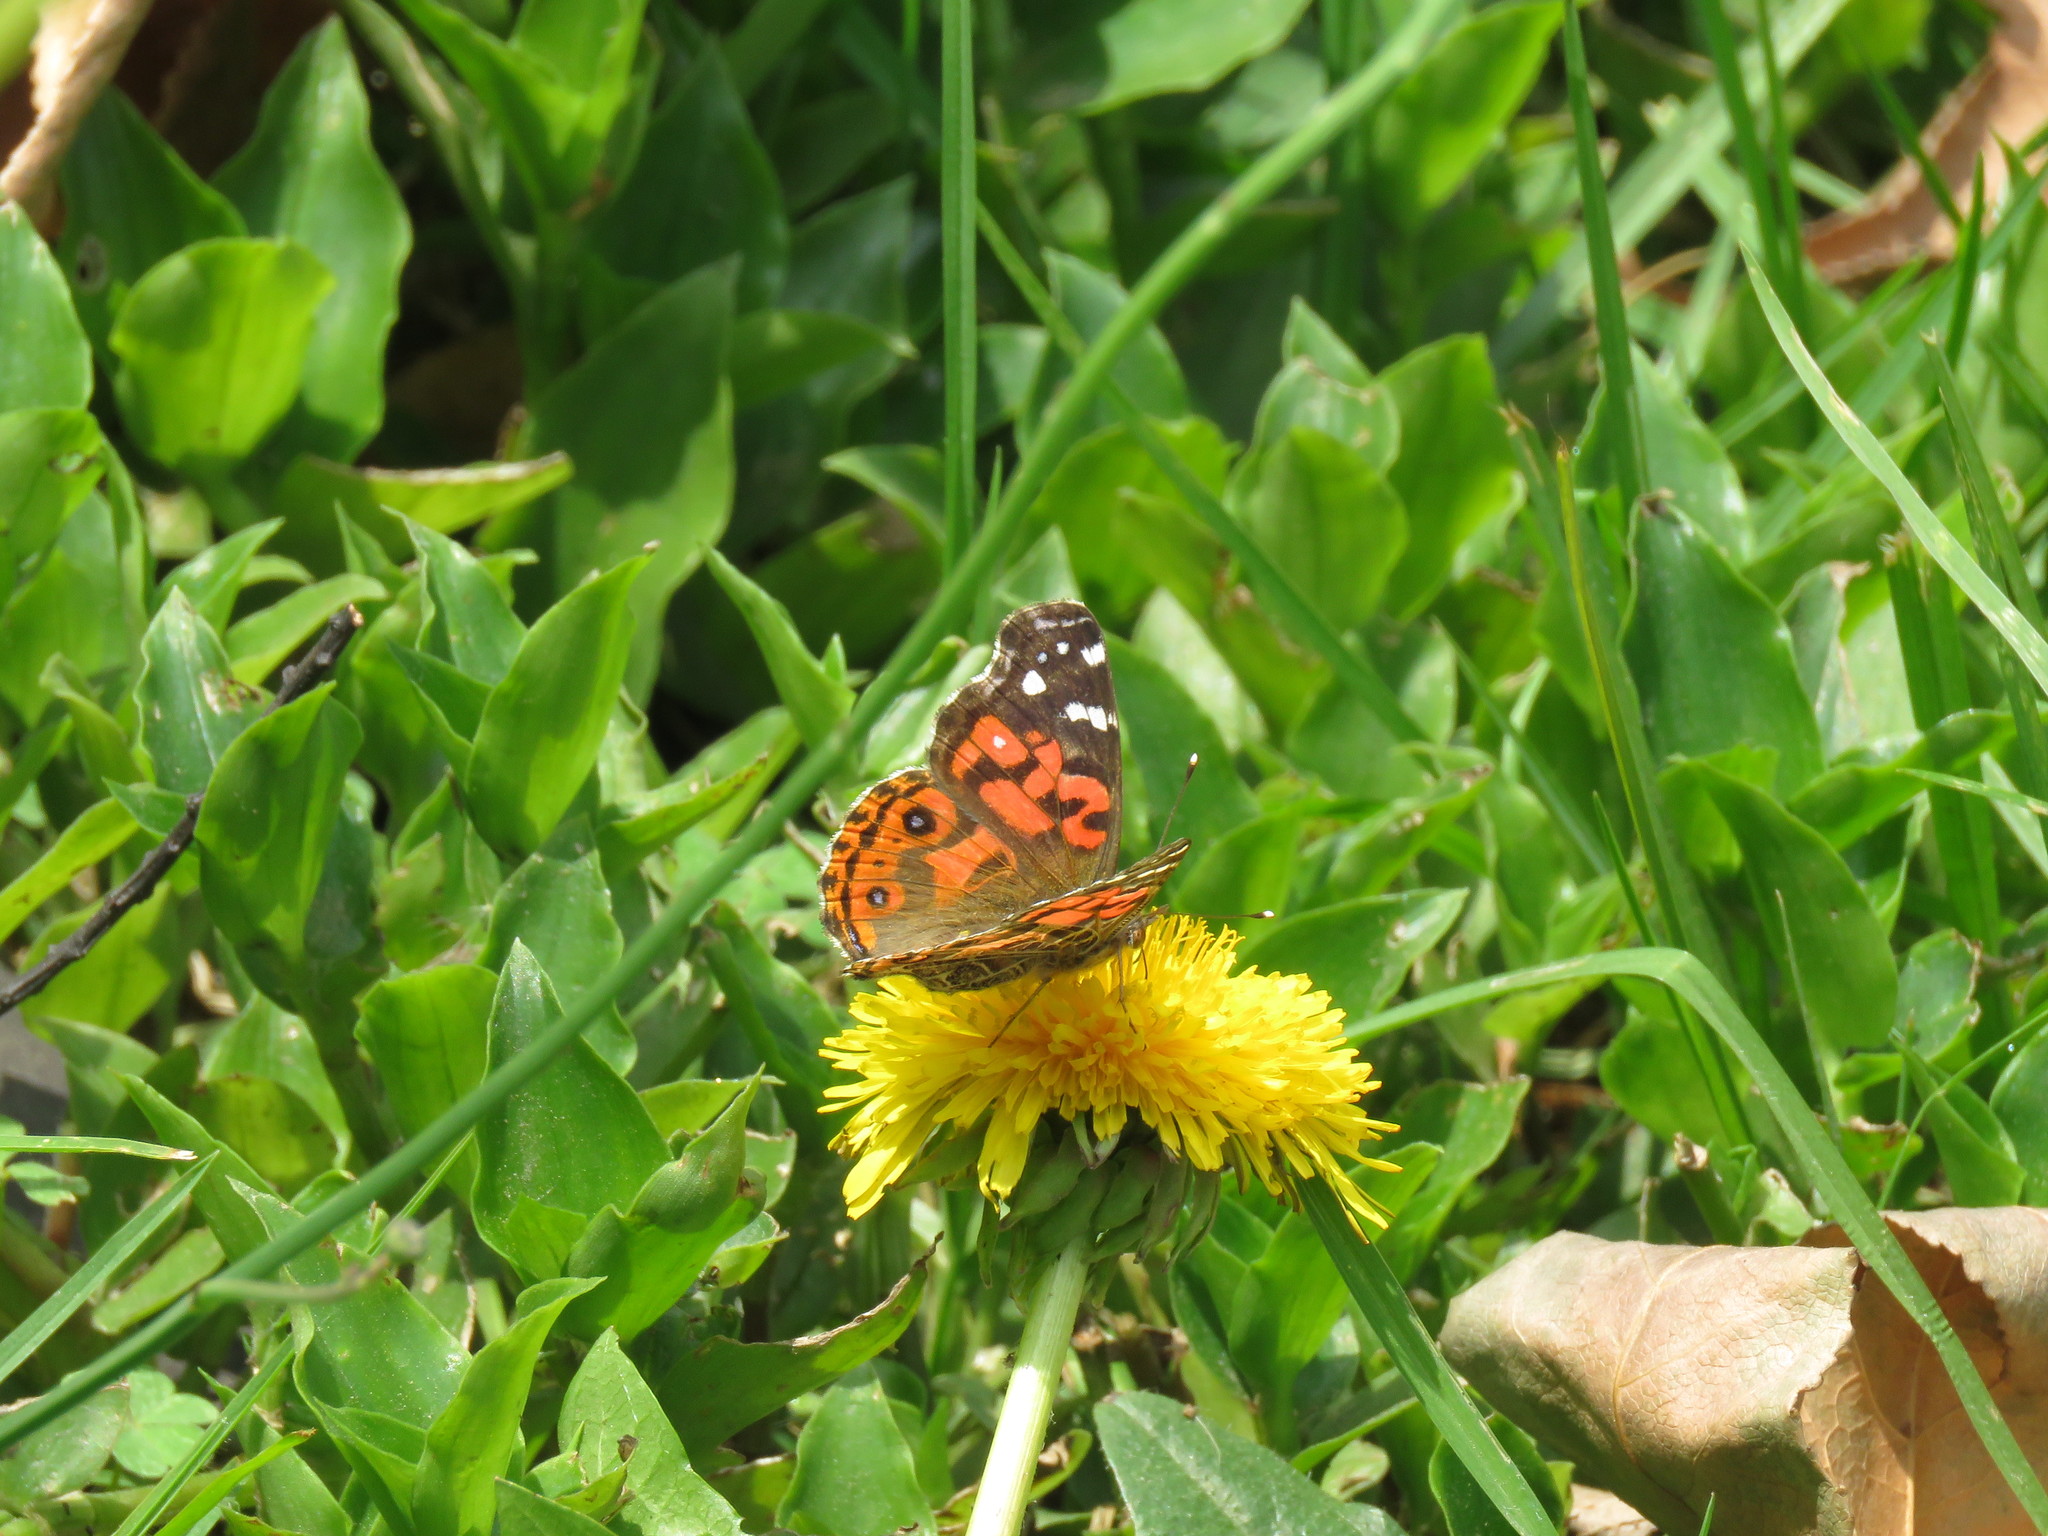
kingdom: Animalia
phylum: Arthropoda
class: Insecta
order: Lepidoptera
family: Nymphalidae
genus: Vanessa
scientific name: Vanessa braziliensis
